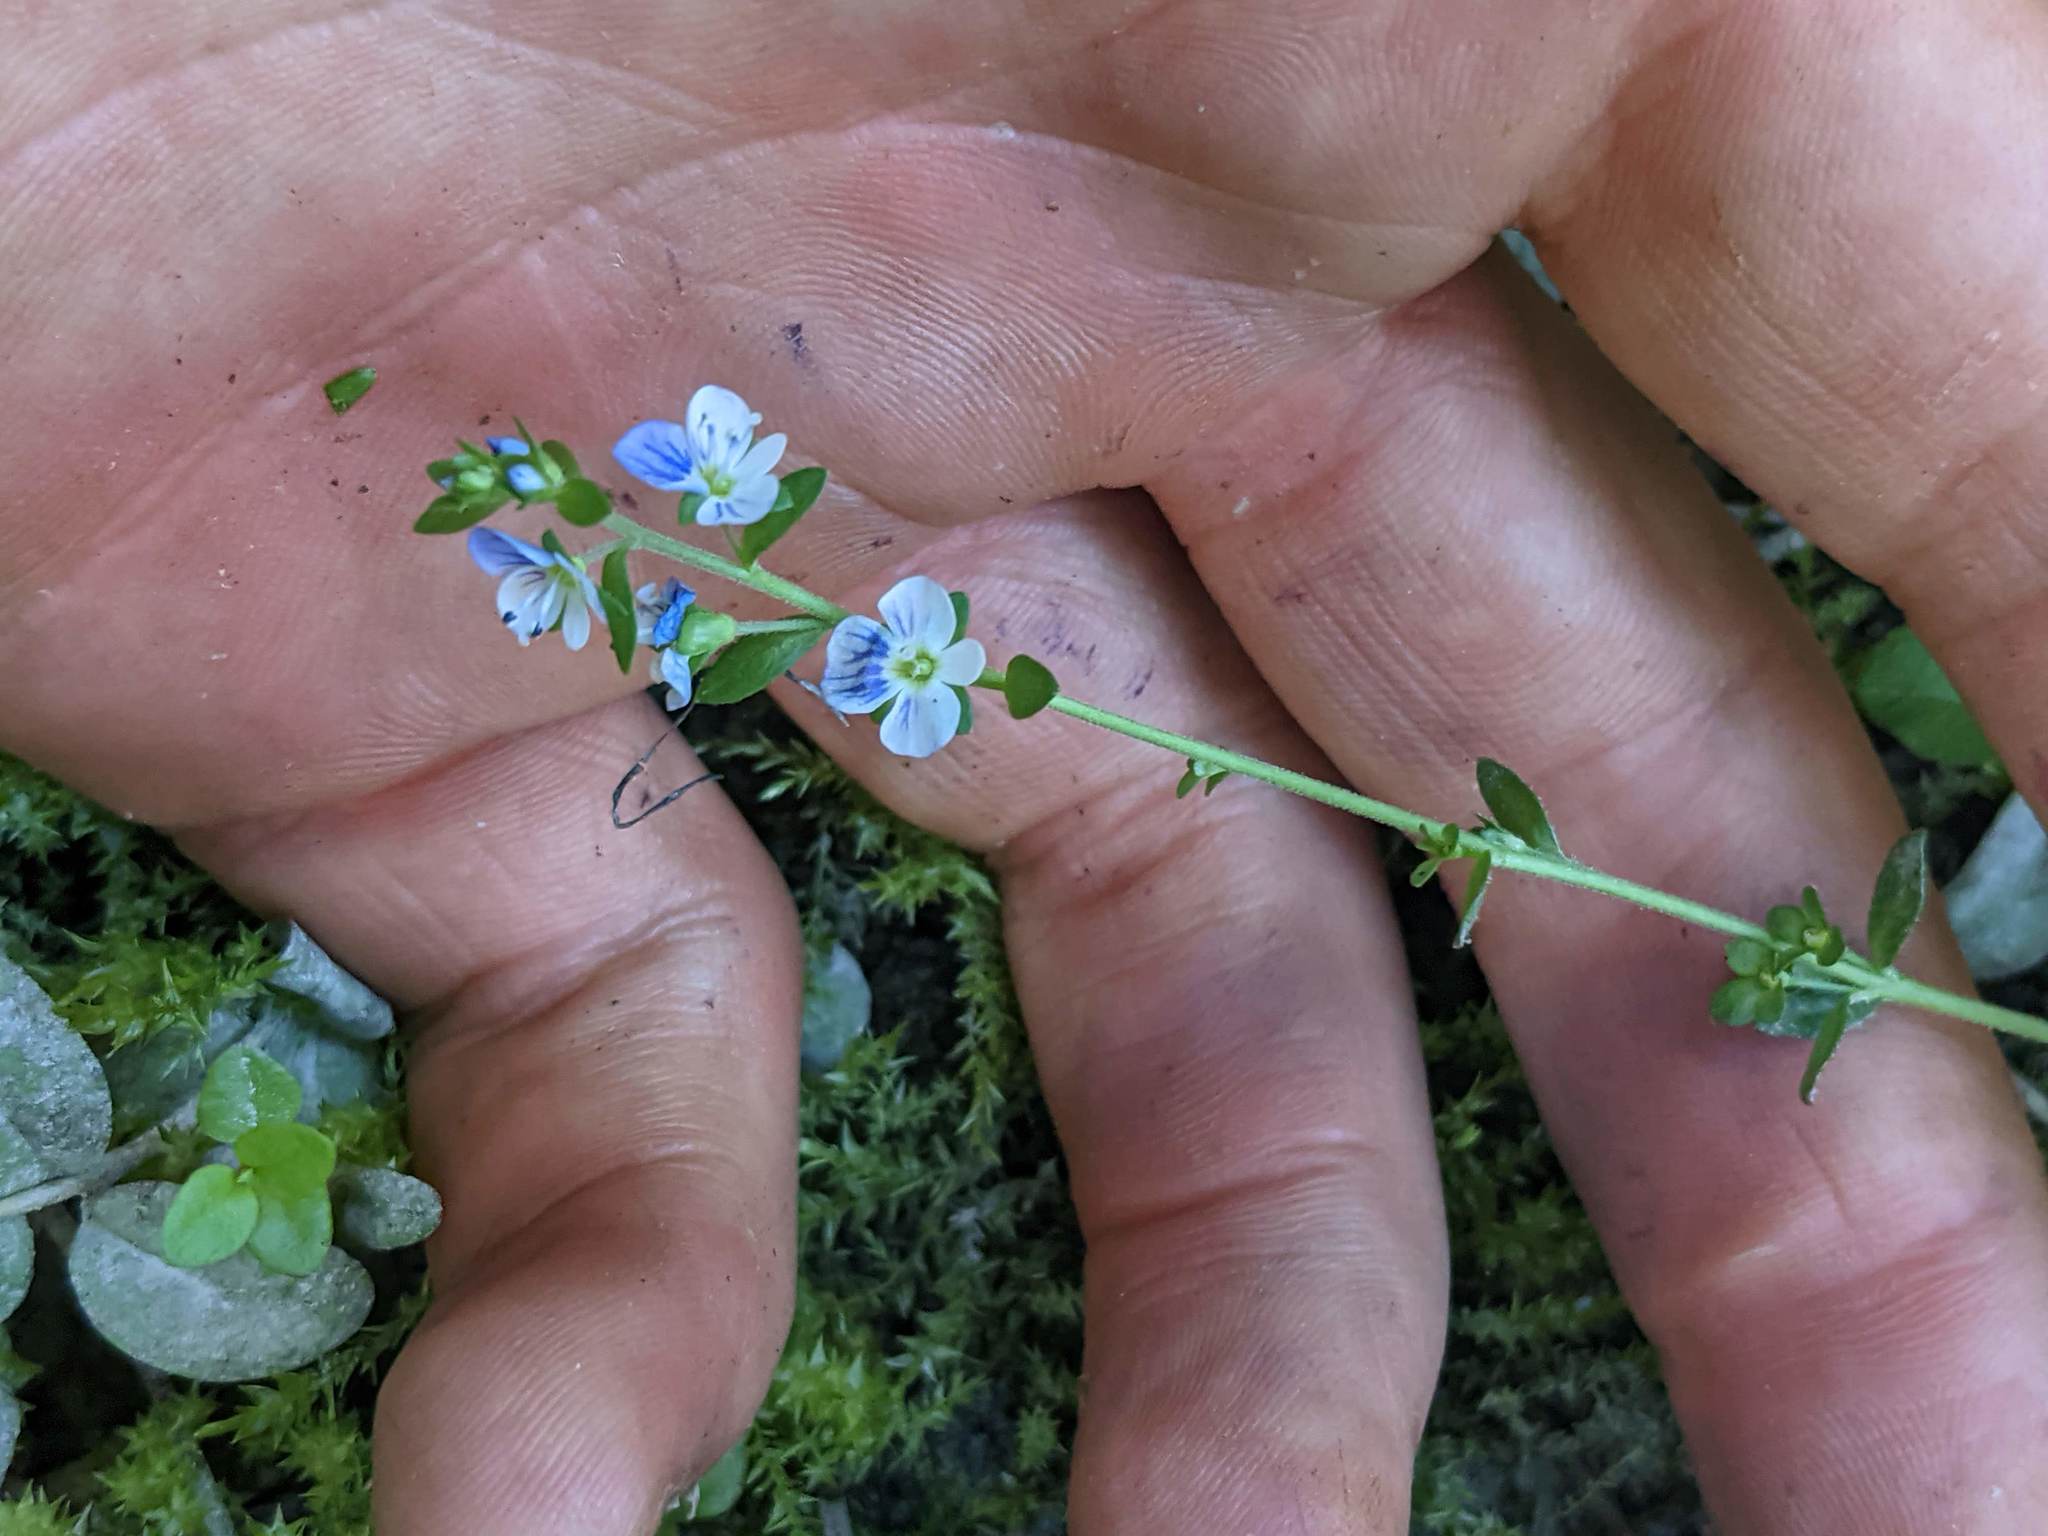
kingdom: Plantae
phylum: Tracheophyta
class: Magnoliopsida
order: Lamiales
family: Plantaginaceae
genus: Veronica
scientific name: Veronica serpyllifolia
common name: Thyme-leaved speedwell
